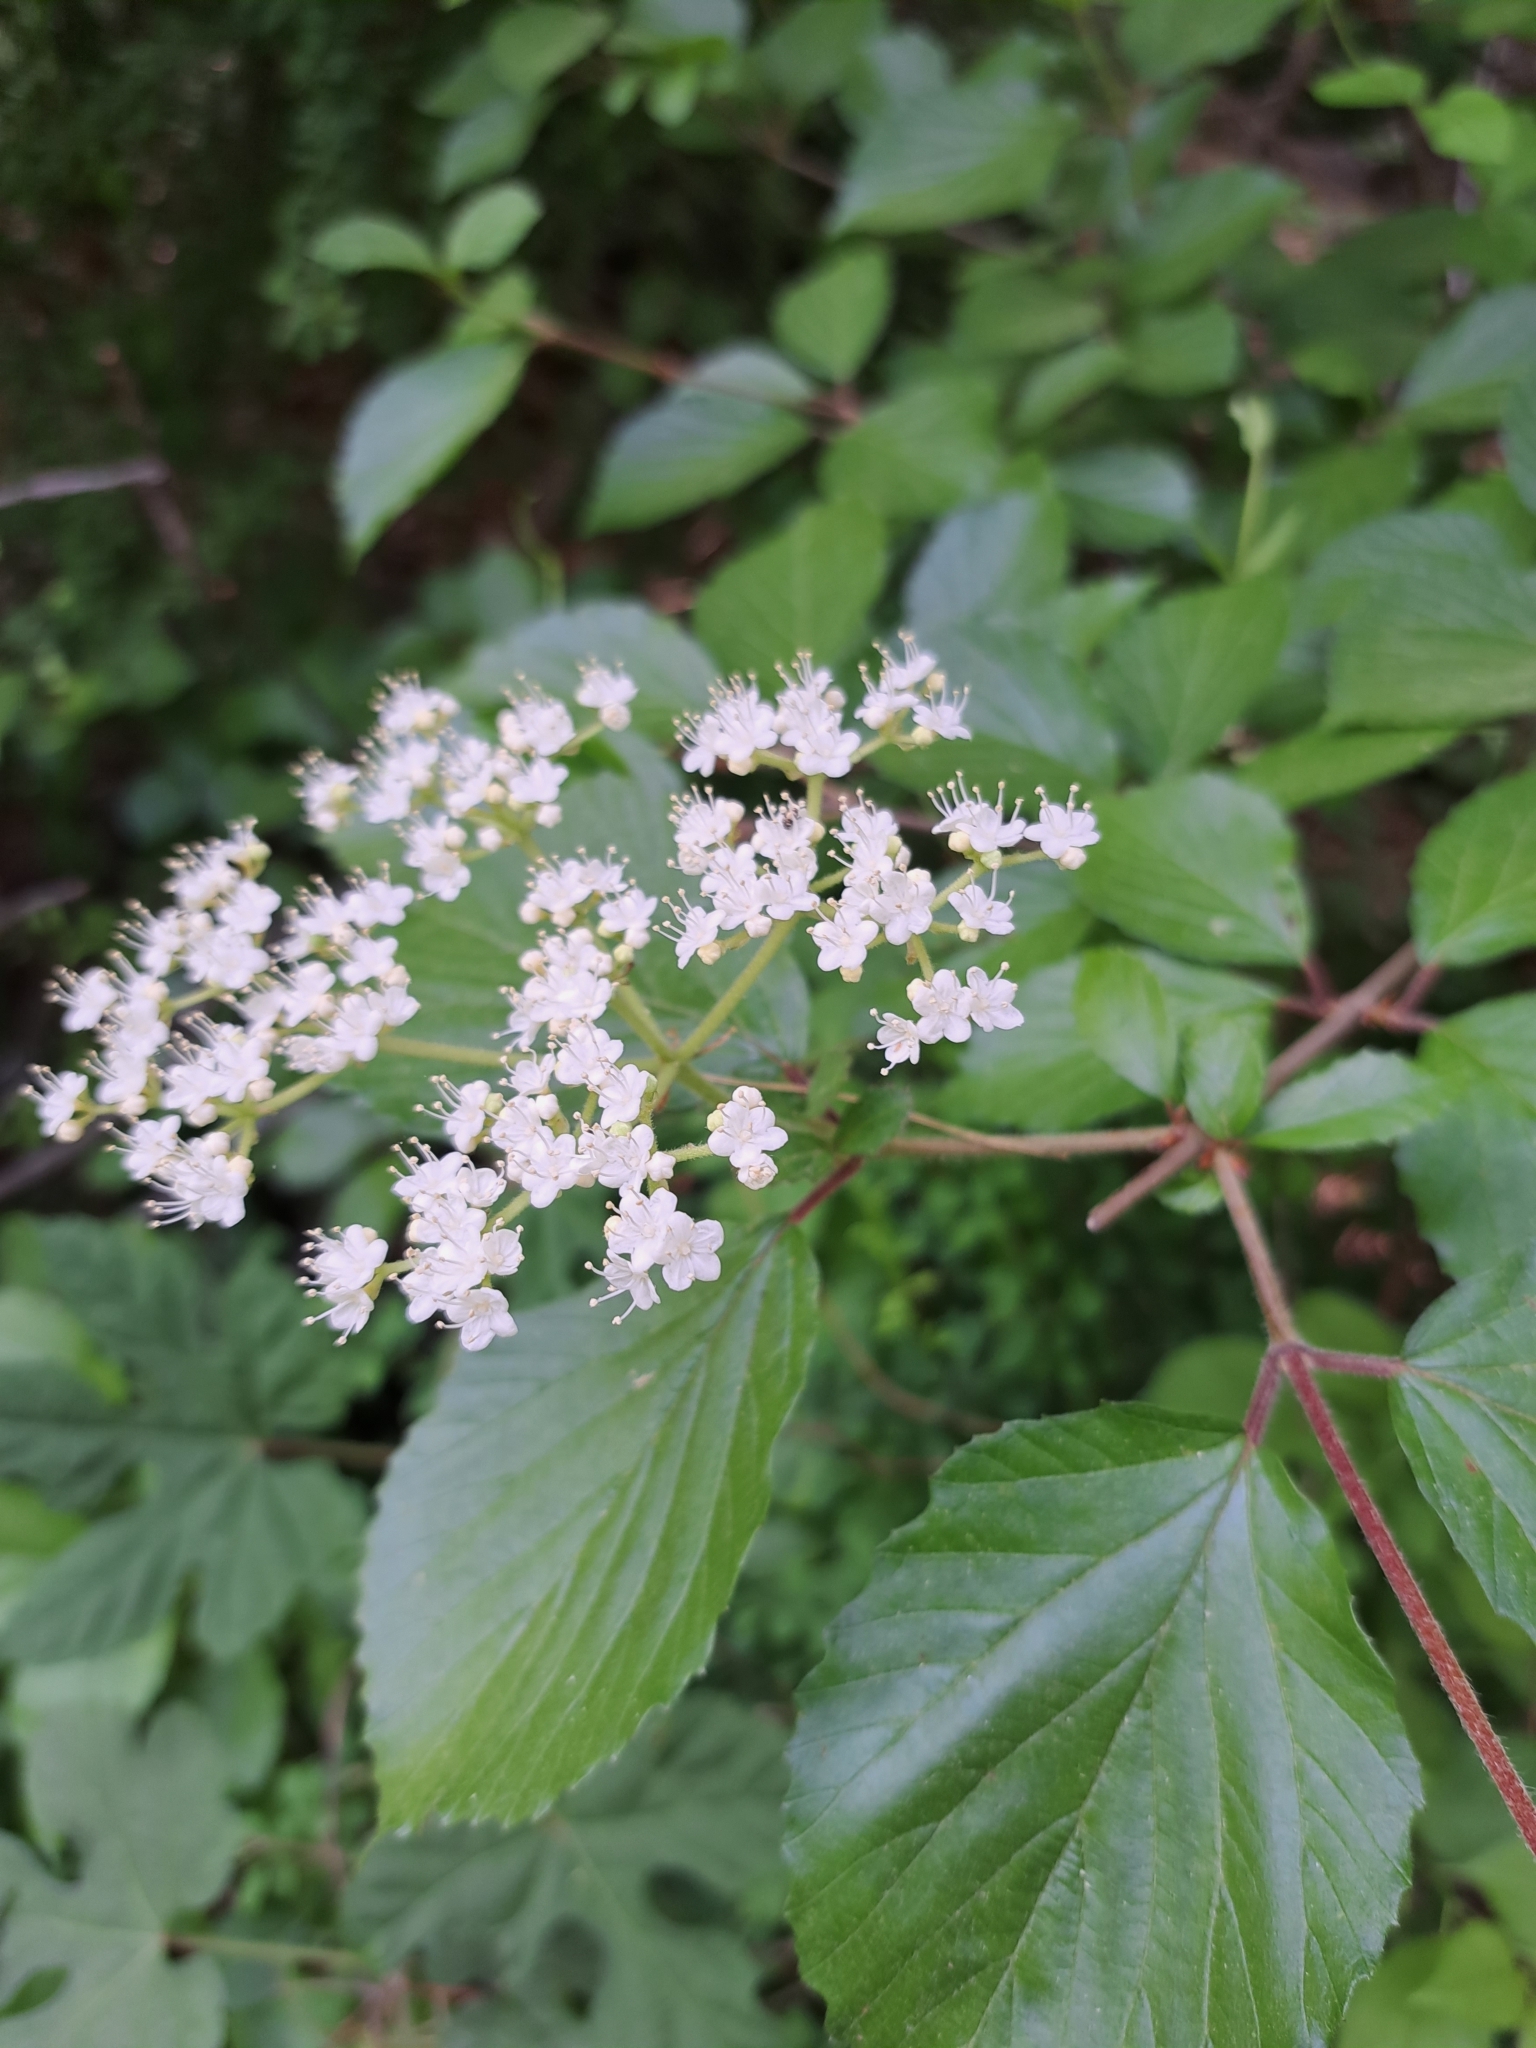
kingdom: Plantae
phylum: Tracheophyta
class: Magnoliopsida
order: Dipsacales
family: Viburnaceae
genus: Viburnum
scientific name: Viburnum dilatatum
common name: Linden arrowwood
